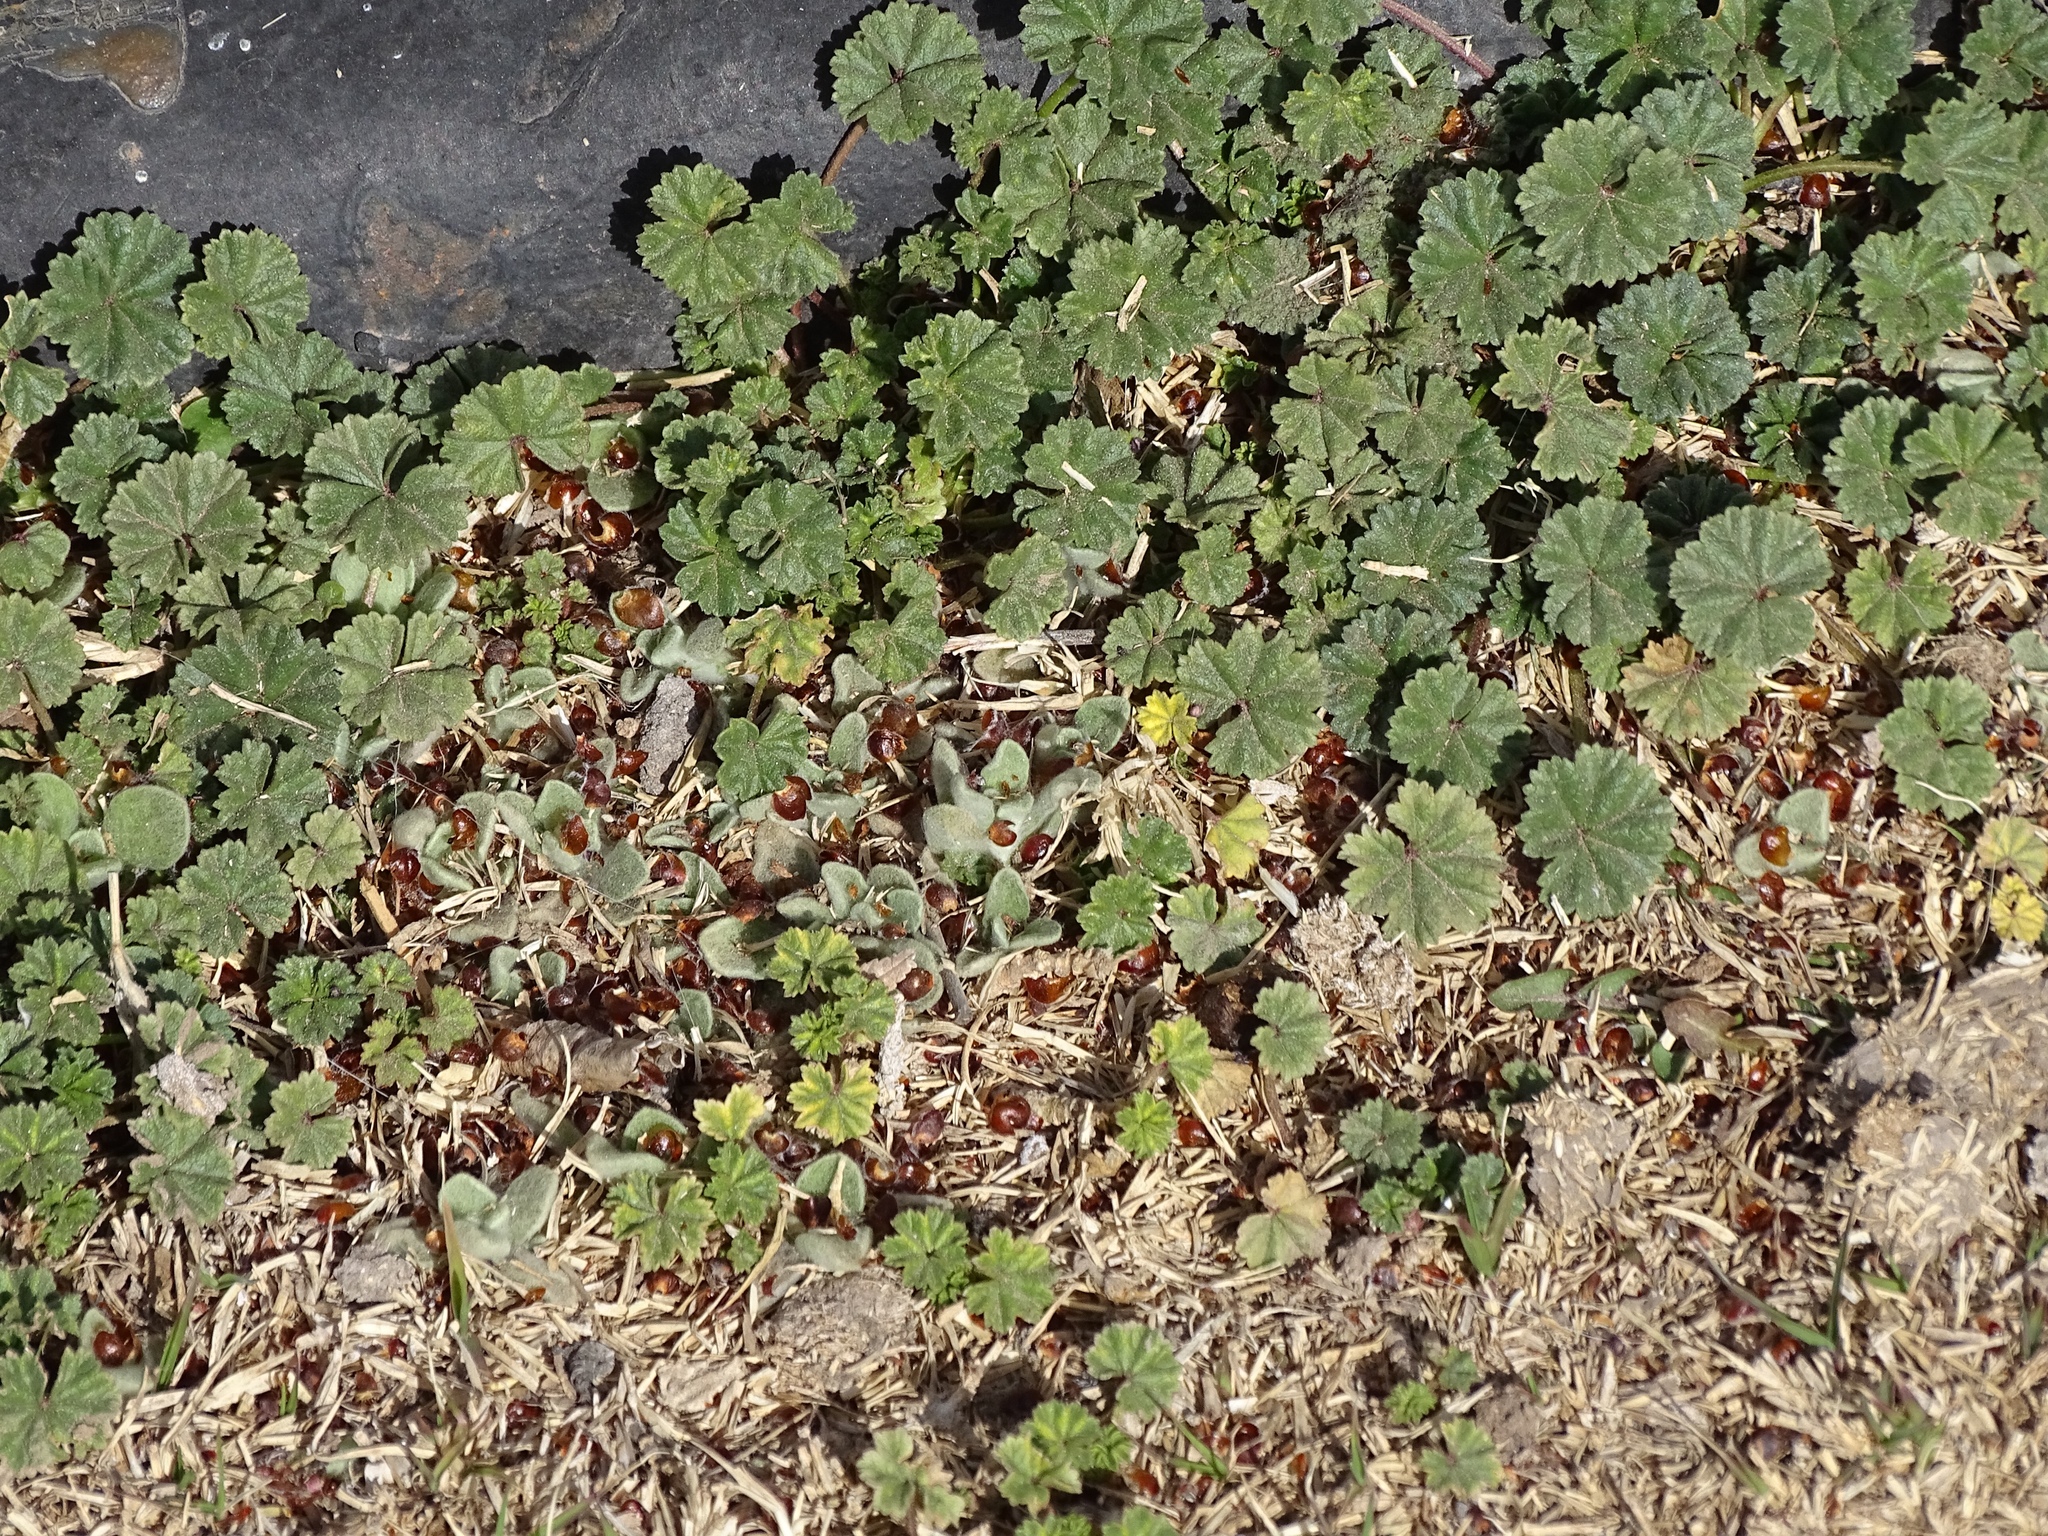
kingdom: Plantae
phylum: Tracheophyta
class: Magnoliopsida
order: Malvales
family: Malvaceae
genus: Malva
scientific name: Malva neglecta
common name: Common mallow
